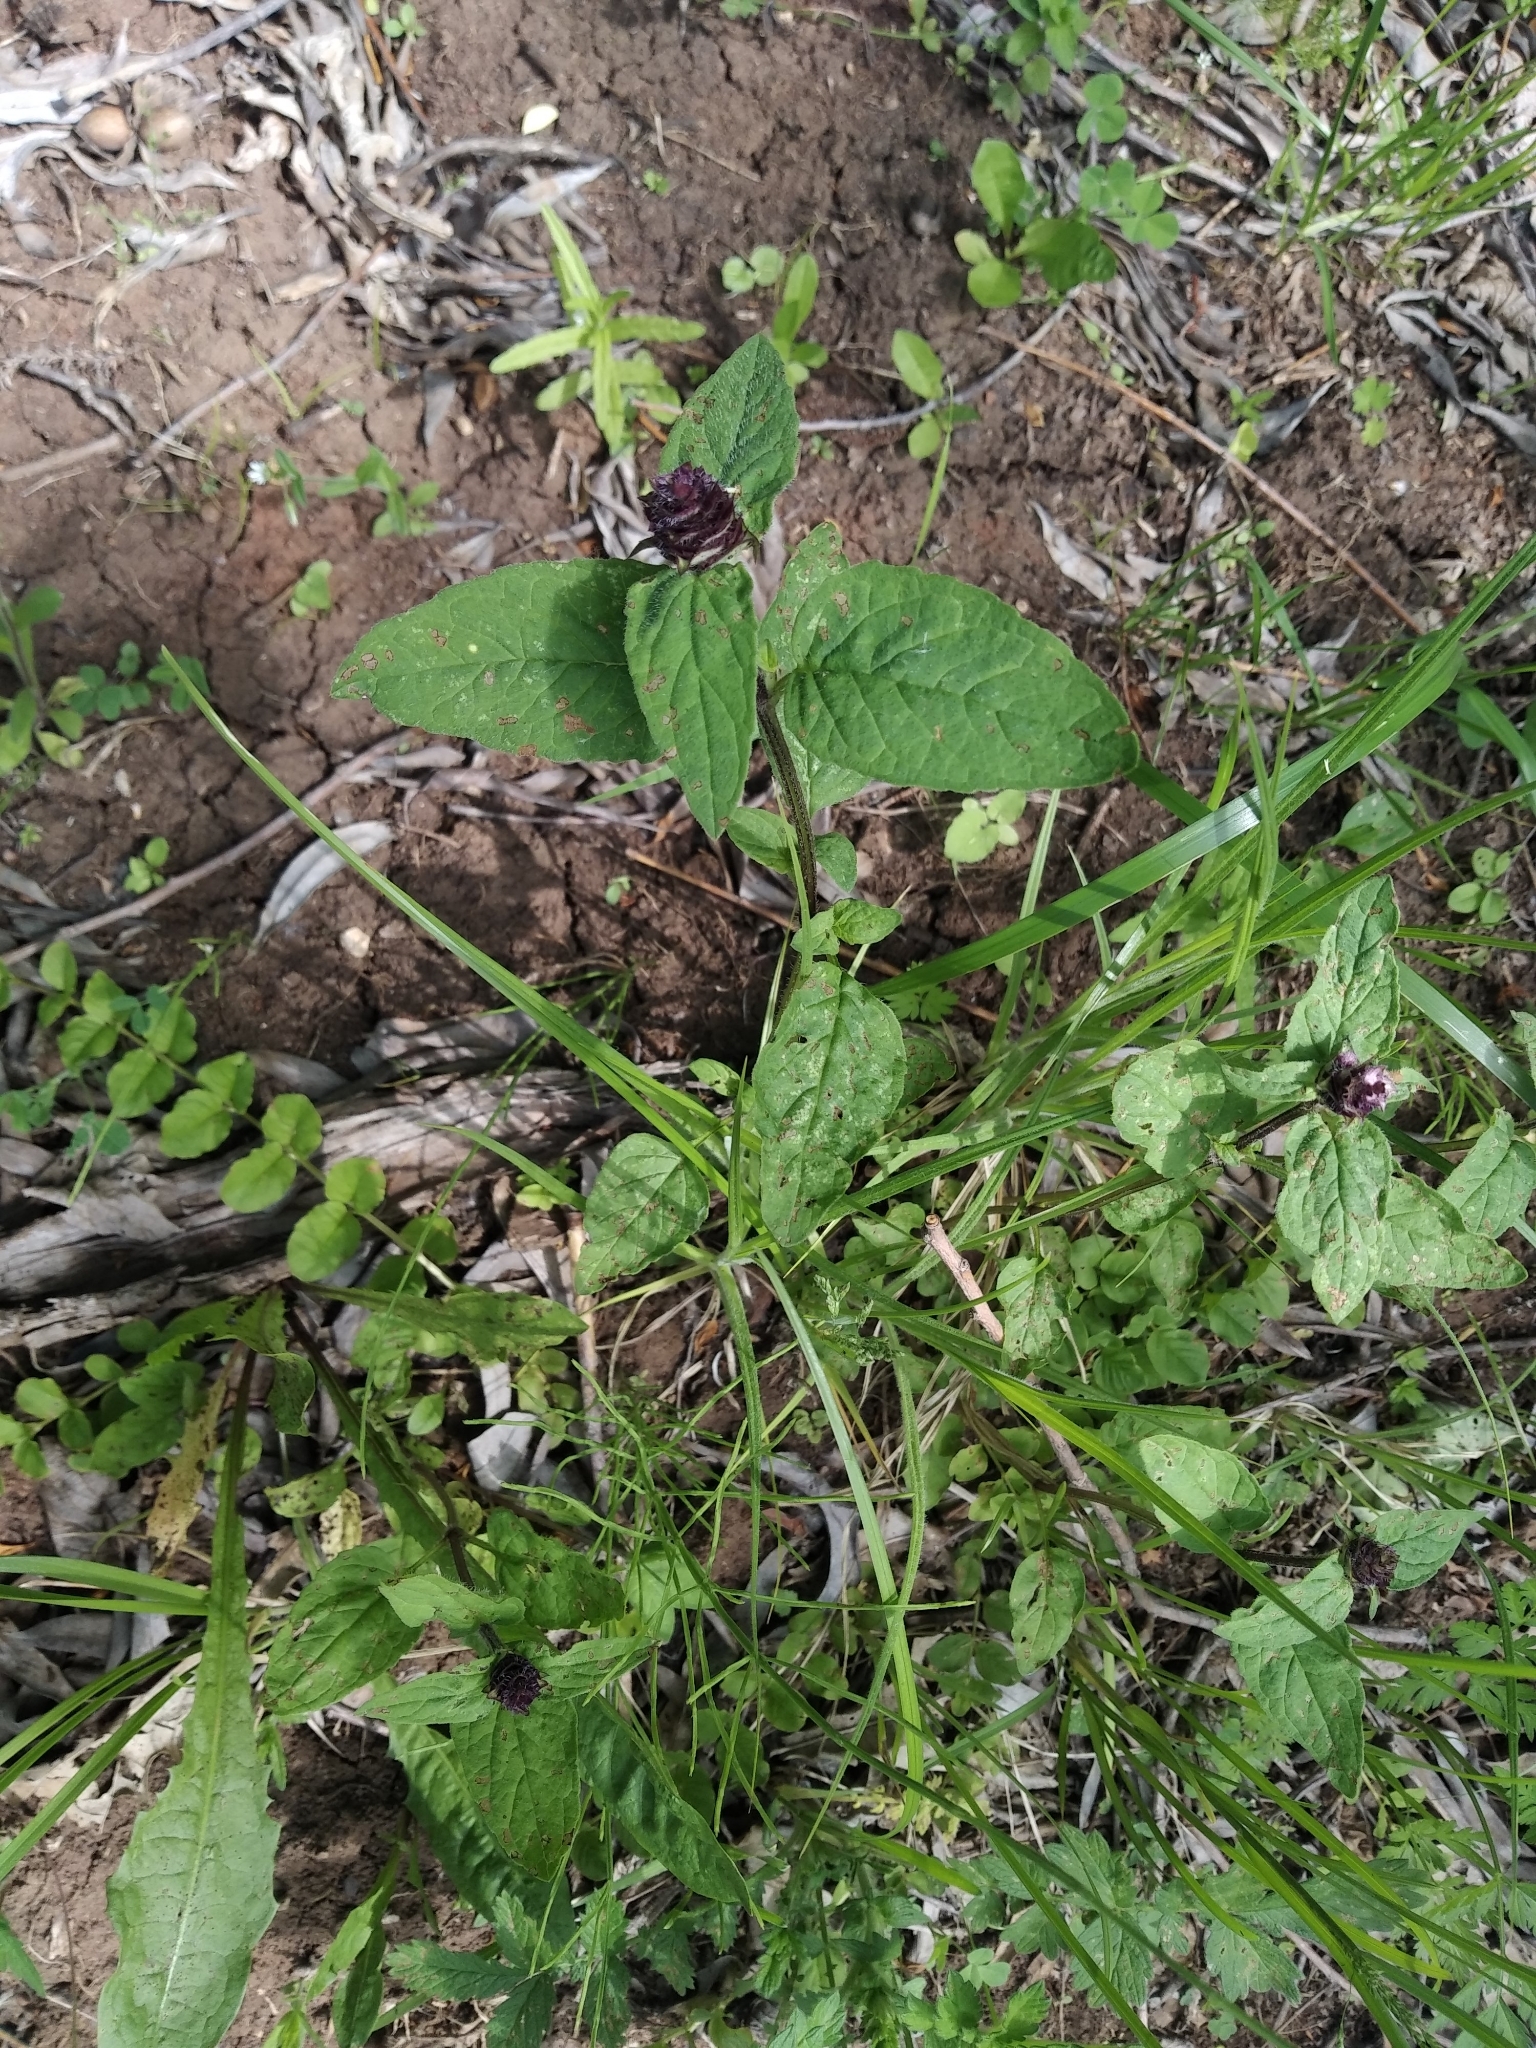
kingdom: Plantae
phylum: Tracheophyta
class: Magnoliopsida
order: Lamiales
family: Lamiaceae
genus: Prunella
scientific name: Prunella vulgaris
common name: Heal-all
